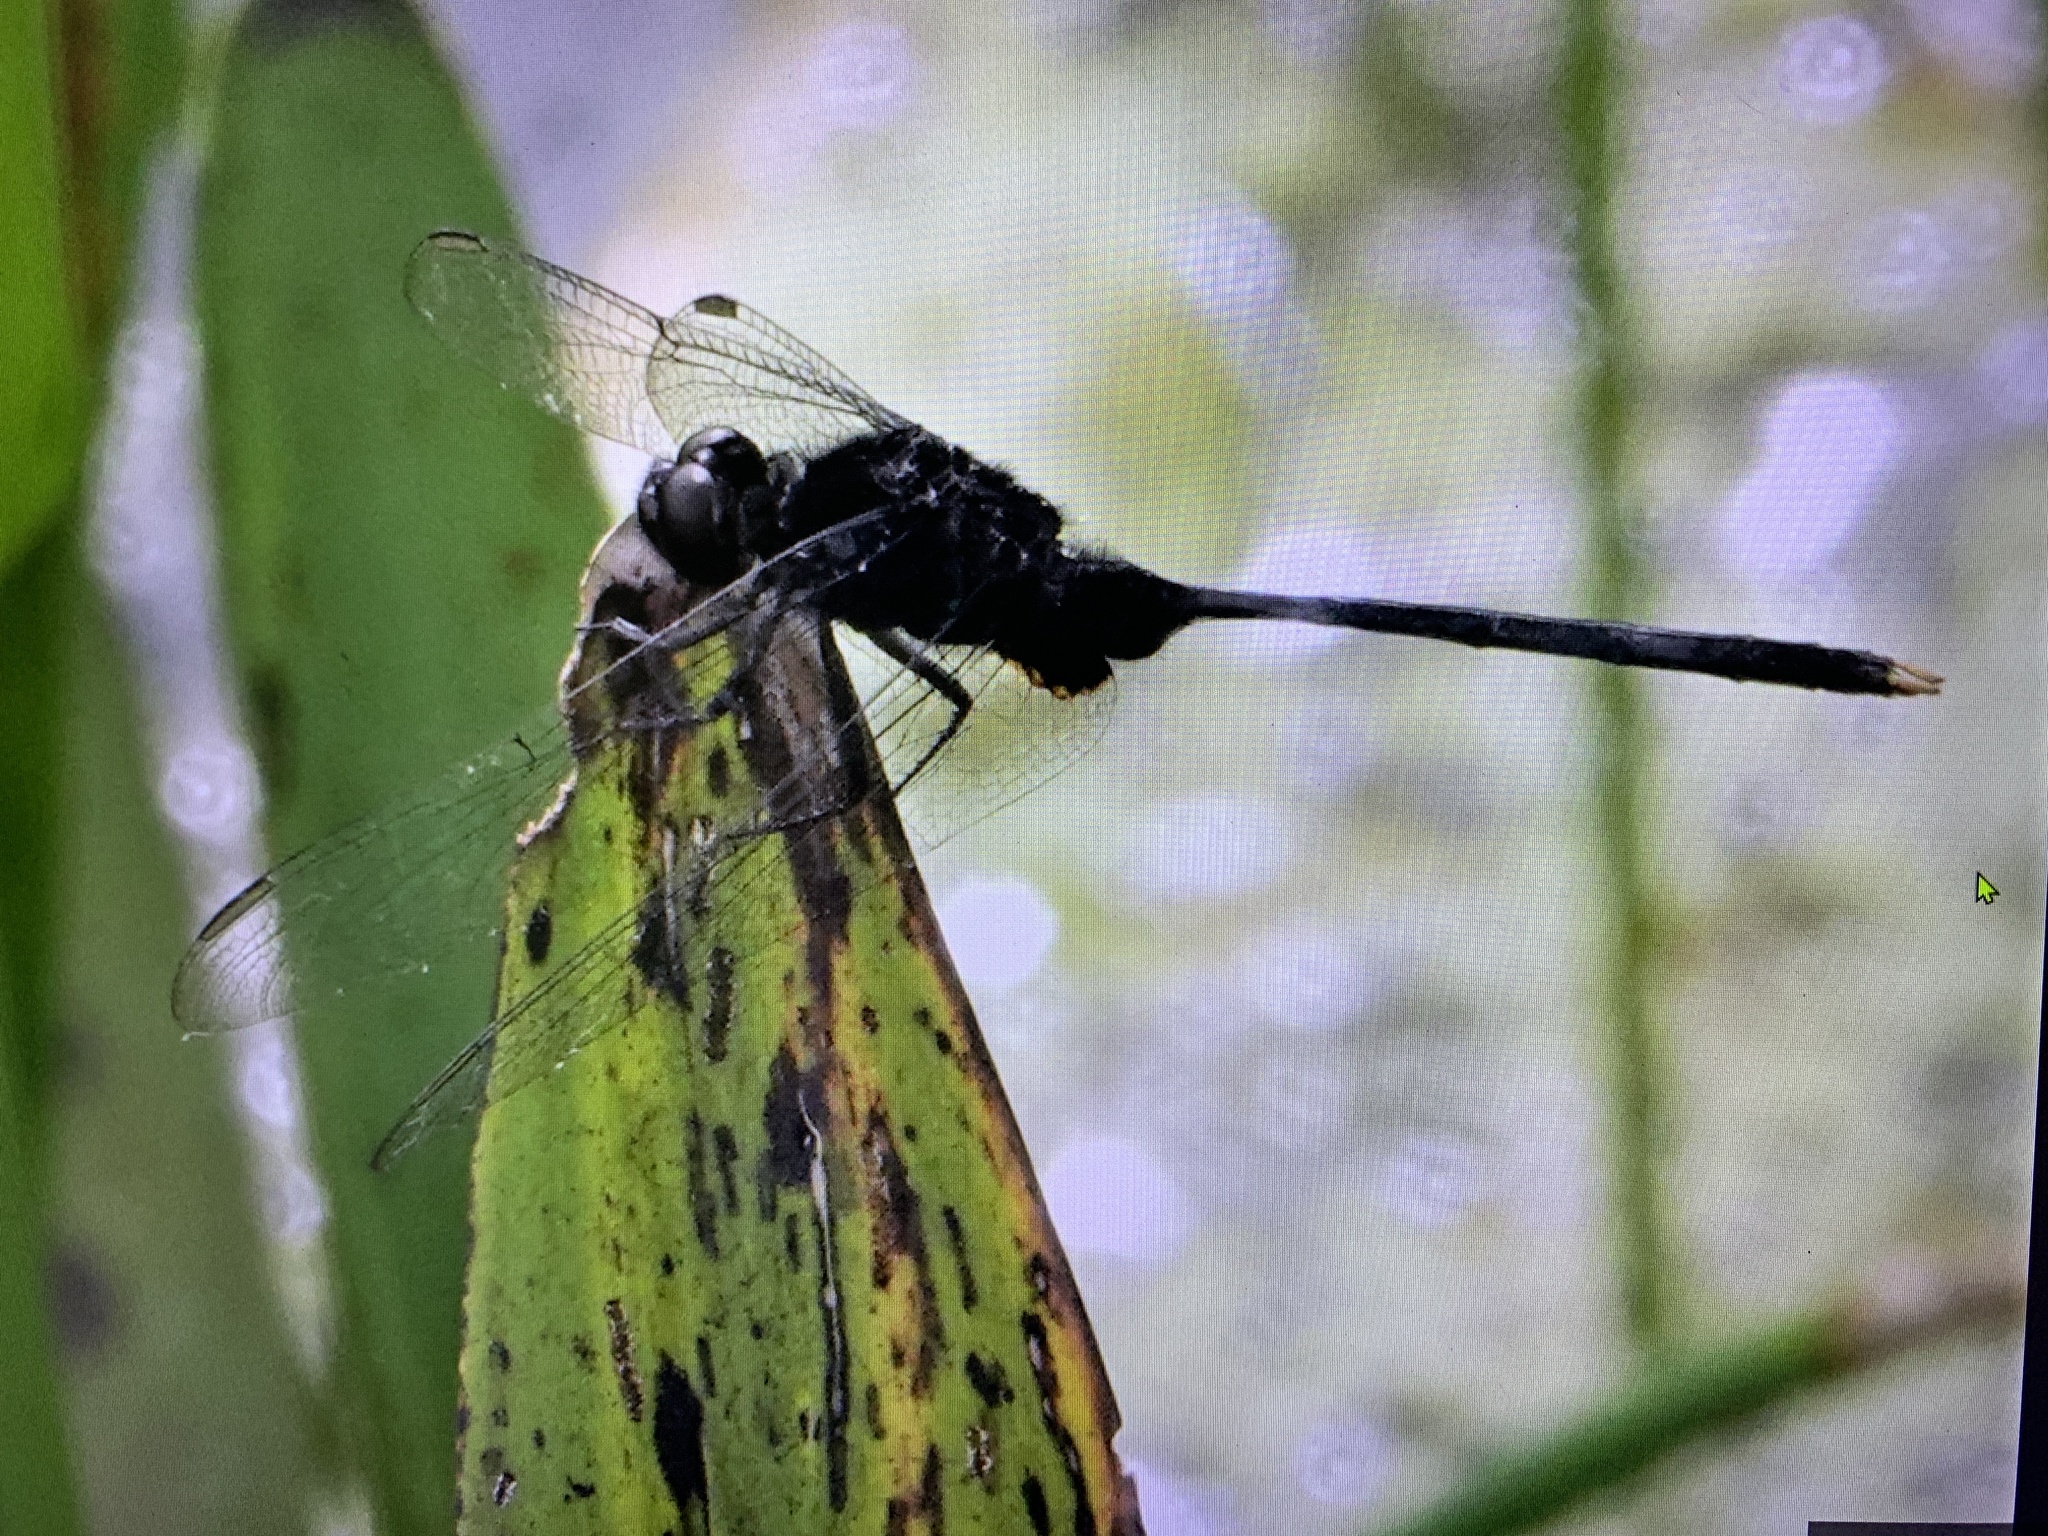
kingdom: Animalia
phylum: Arthropoda
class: Insecta
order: Odonata
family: Libellulidae
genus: Erythemis
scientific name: Erythemis plebeja
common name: Pin-tailed pondhawk
